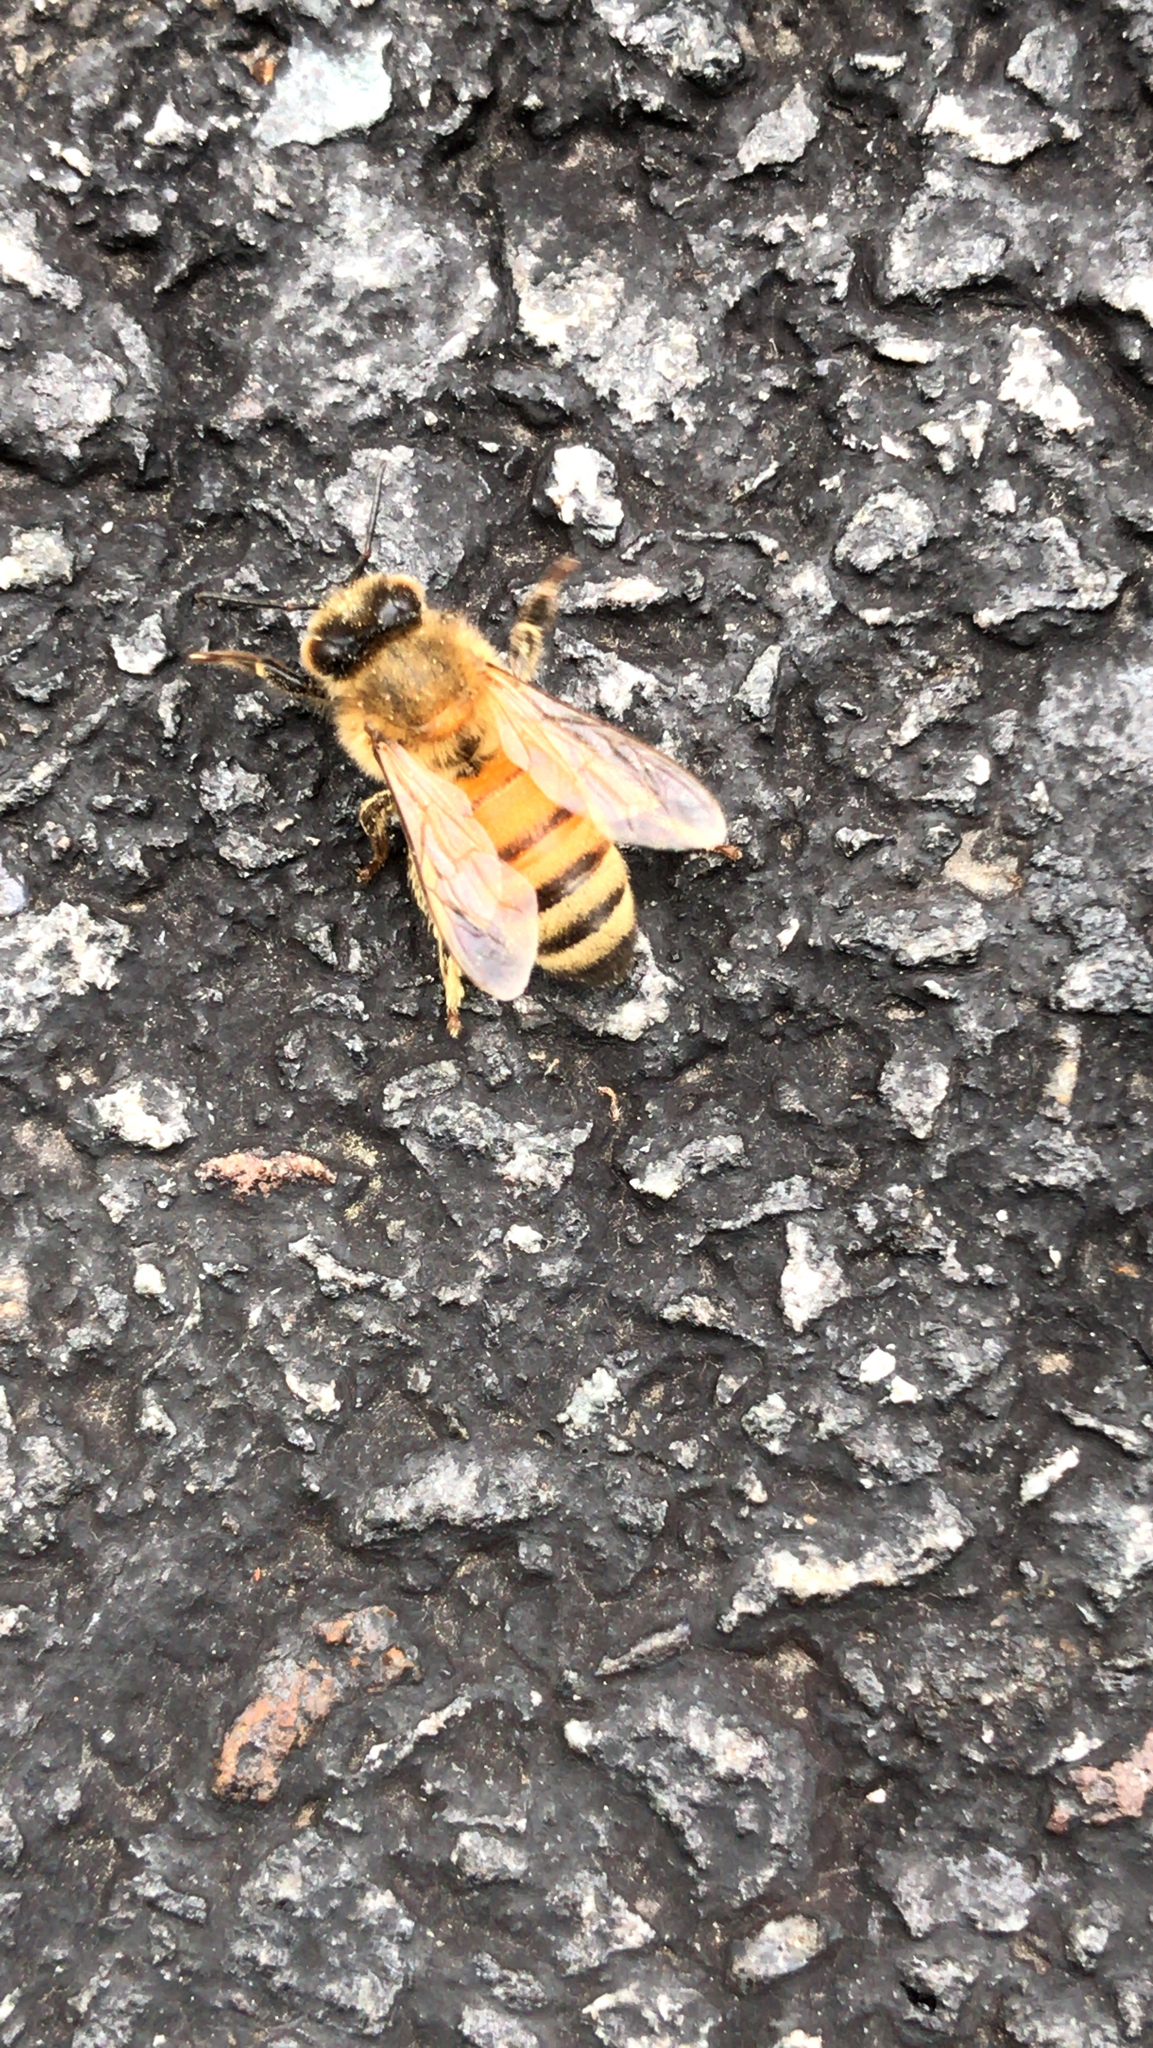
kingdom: Animalia
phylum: Arthropoda
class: Insecta
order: Hymenoptera
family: Apidae
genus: Apis
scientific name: Apis mellifera
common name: Honey bee
